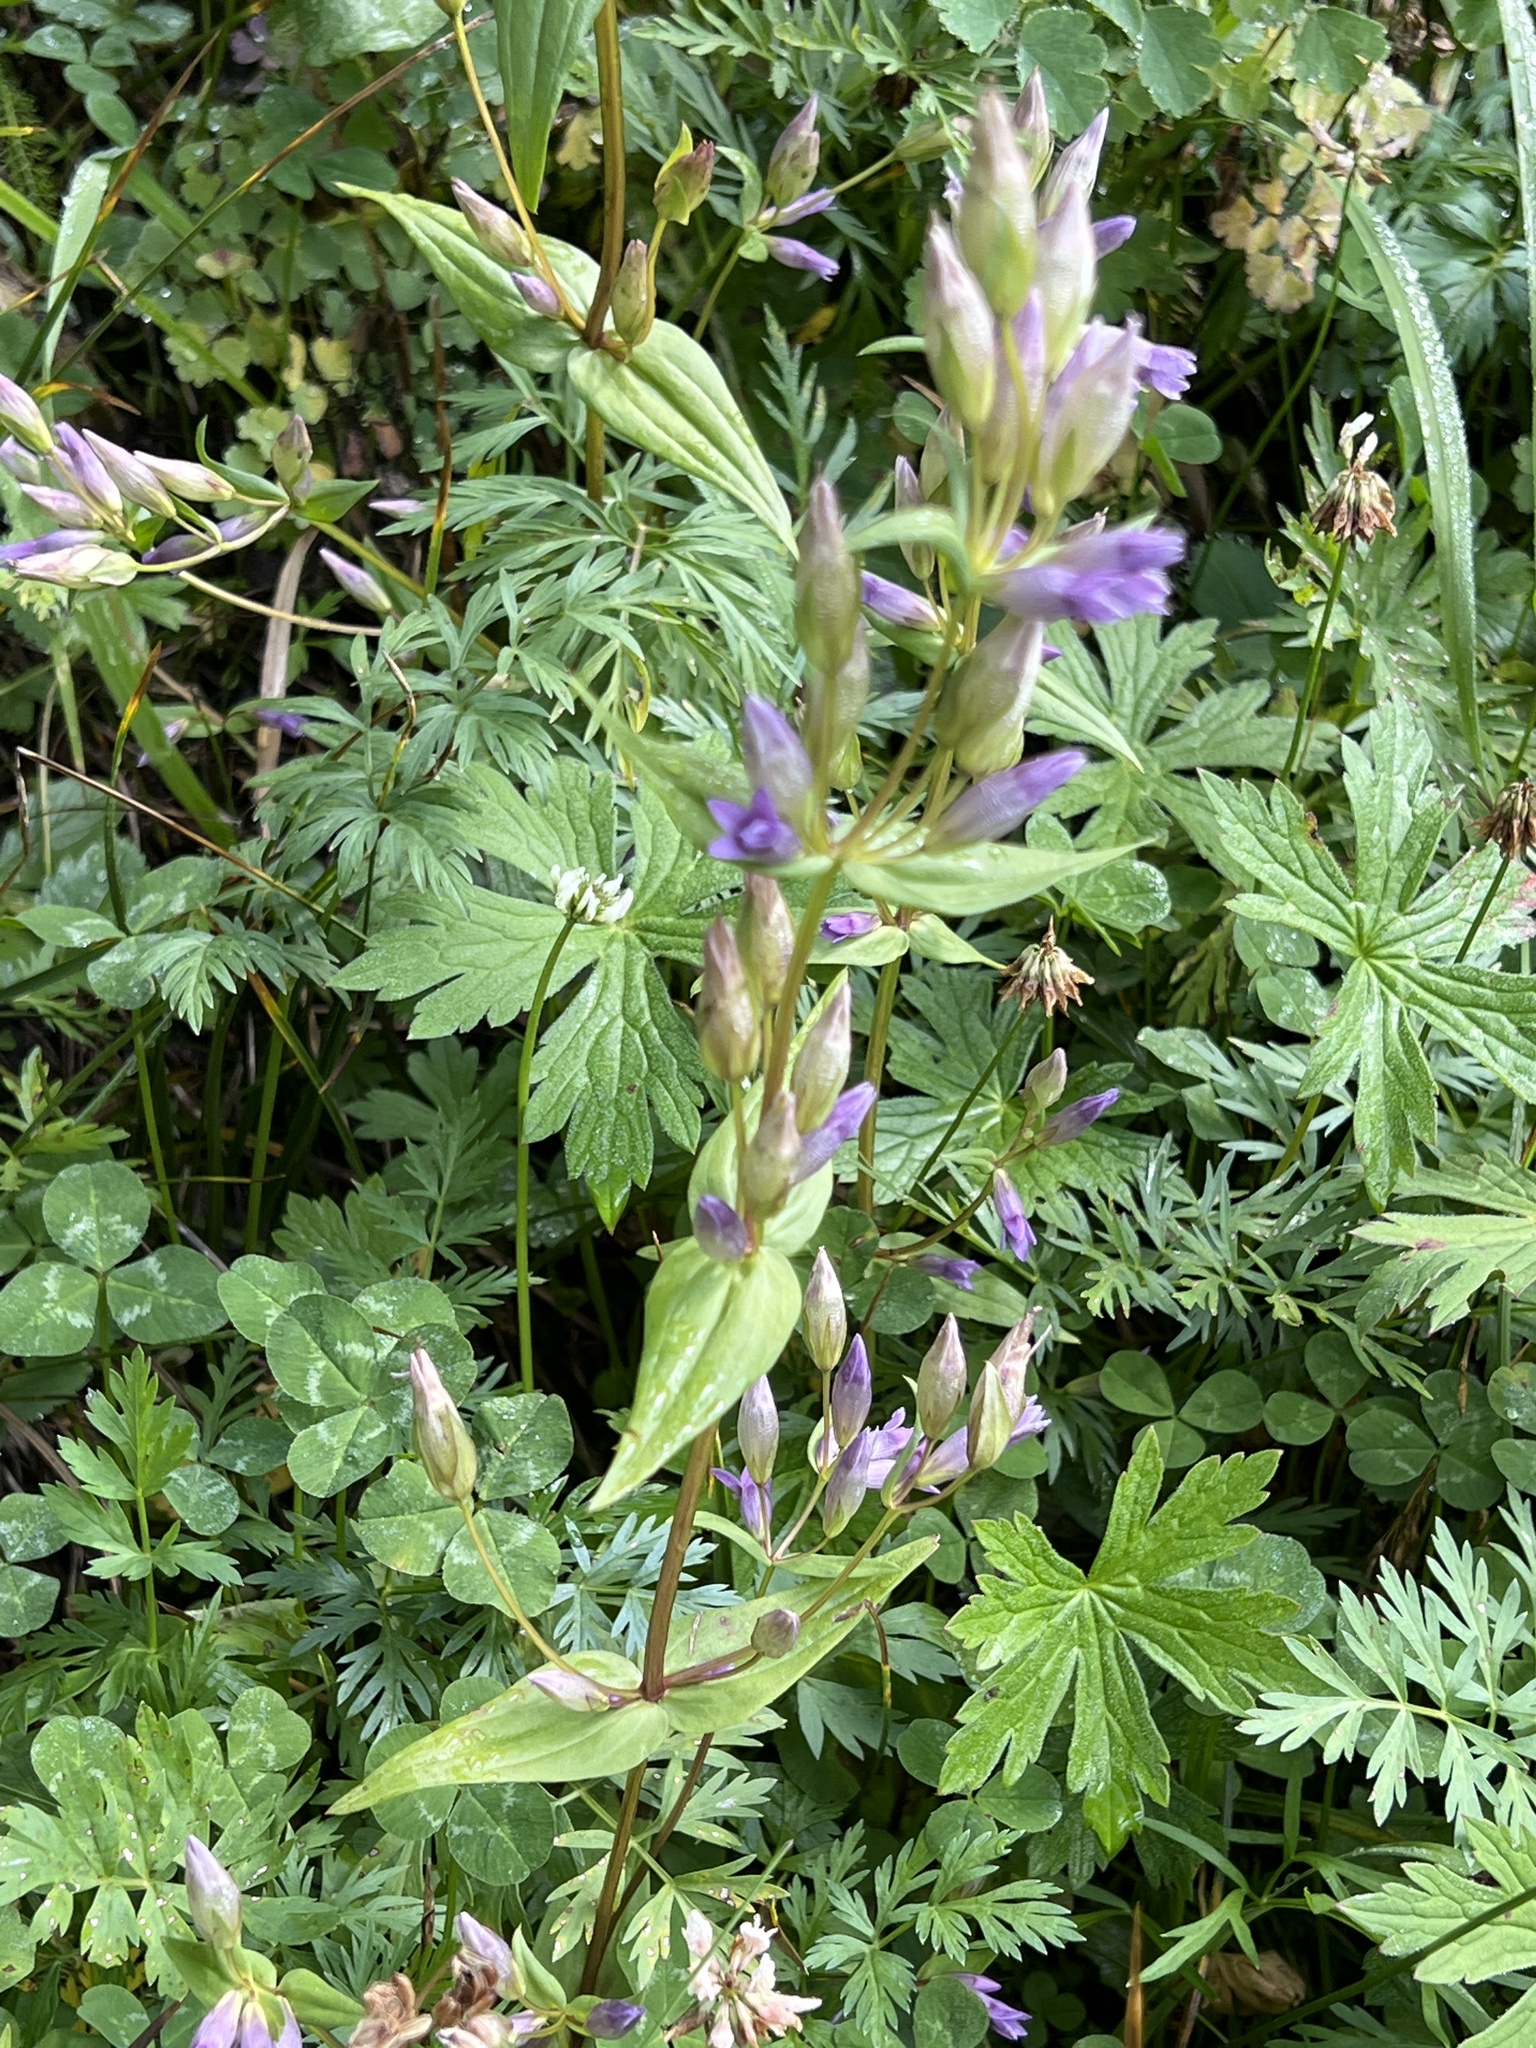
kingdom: Plantae
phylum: Tracheophyta
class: Magnoliopsida
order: Gentianales
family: Gentianaceae
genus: Gentianella
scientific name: Gentianella amarella
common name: Autumn gentian
